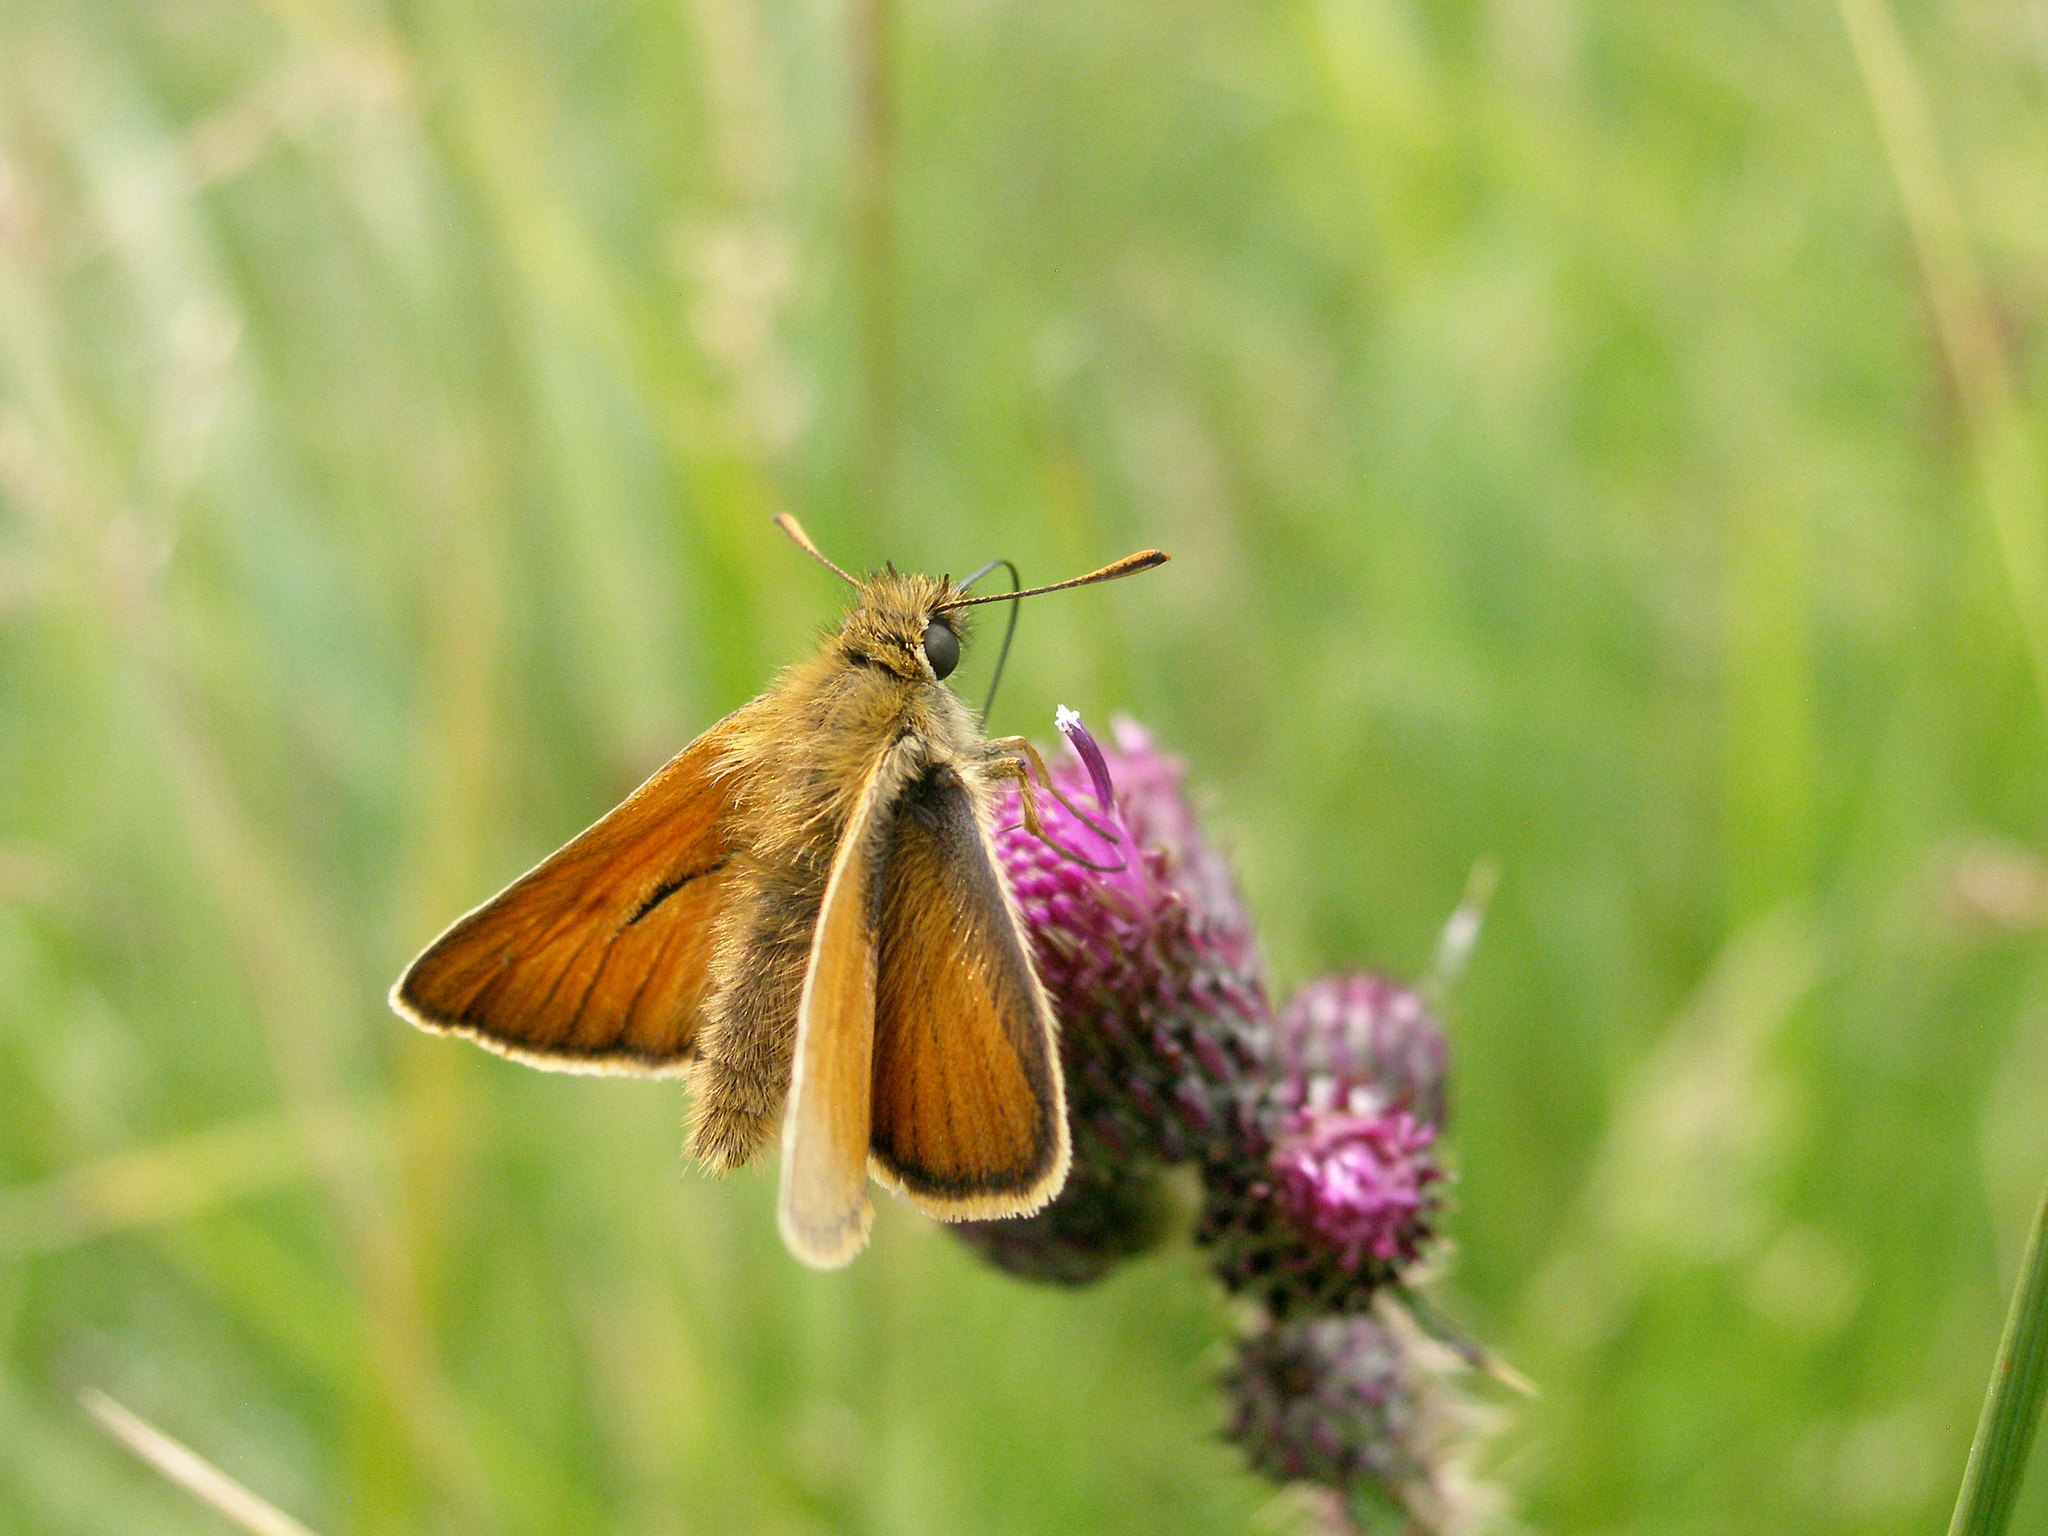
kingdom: Animalia
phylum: Arthropoda
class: Insecta
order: Lepidoptera
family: Hesperiidae
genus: Thymelicus
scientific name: Thymelicus sylvestris
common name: Small skipper
